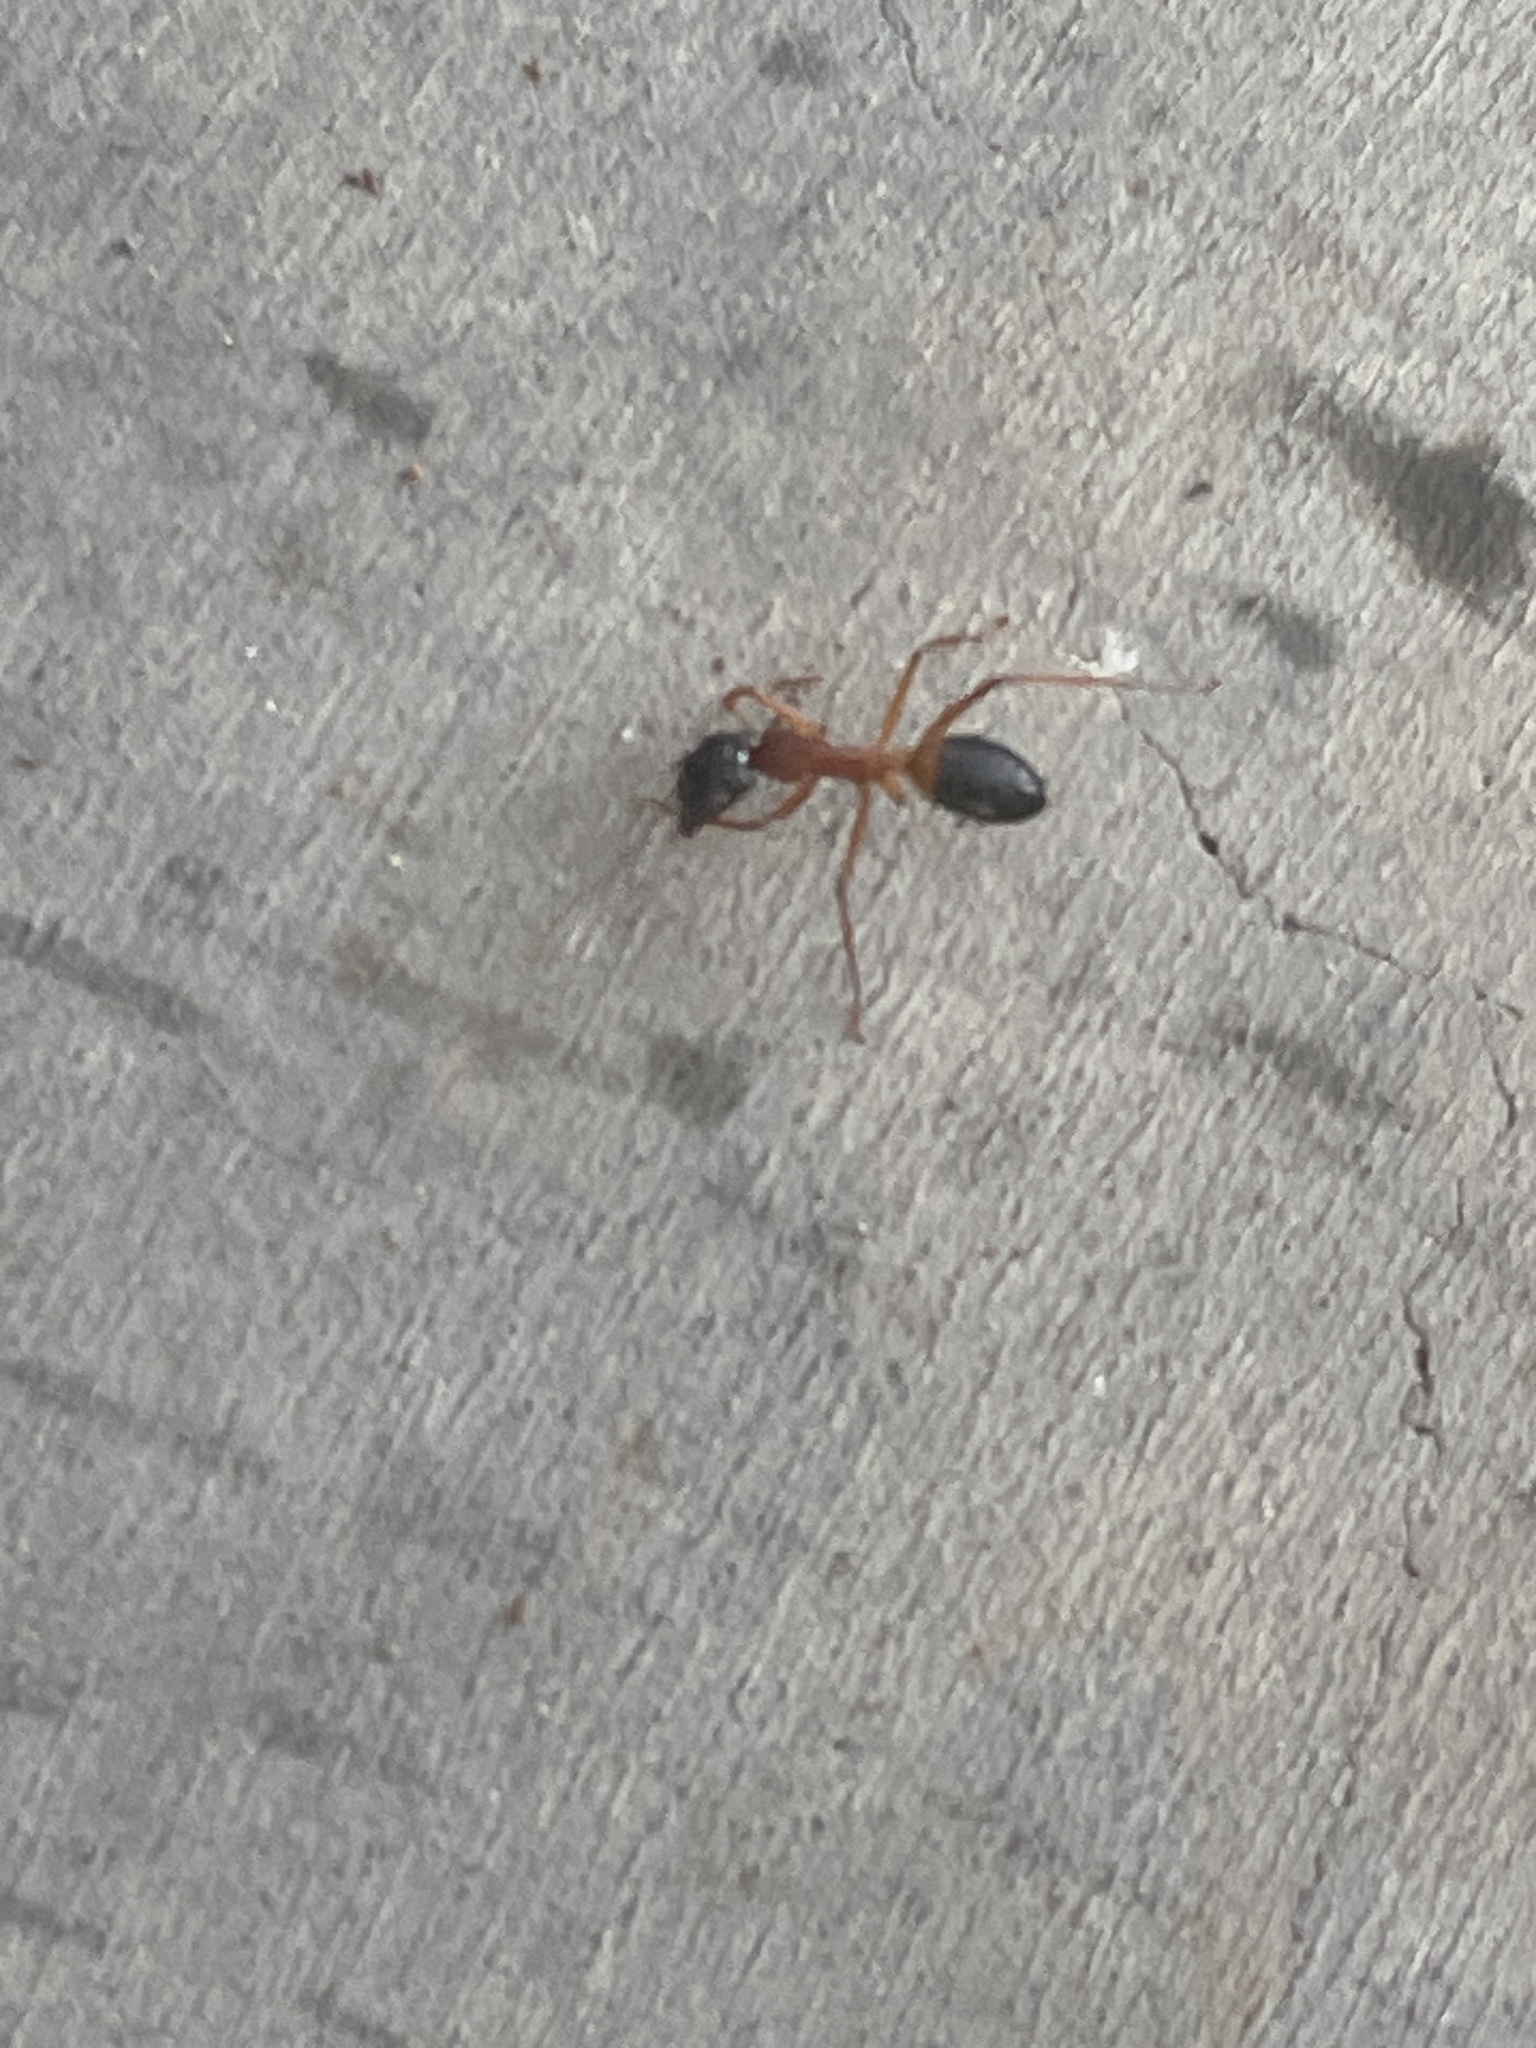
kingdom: Animalia
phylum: Arthropoda
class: Insecta
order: Hymenoptera
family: Formicidae
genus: Camponotus
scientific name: Camponotus consobrinus
